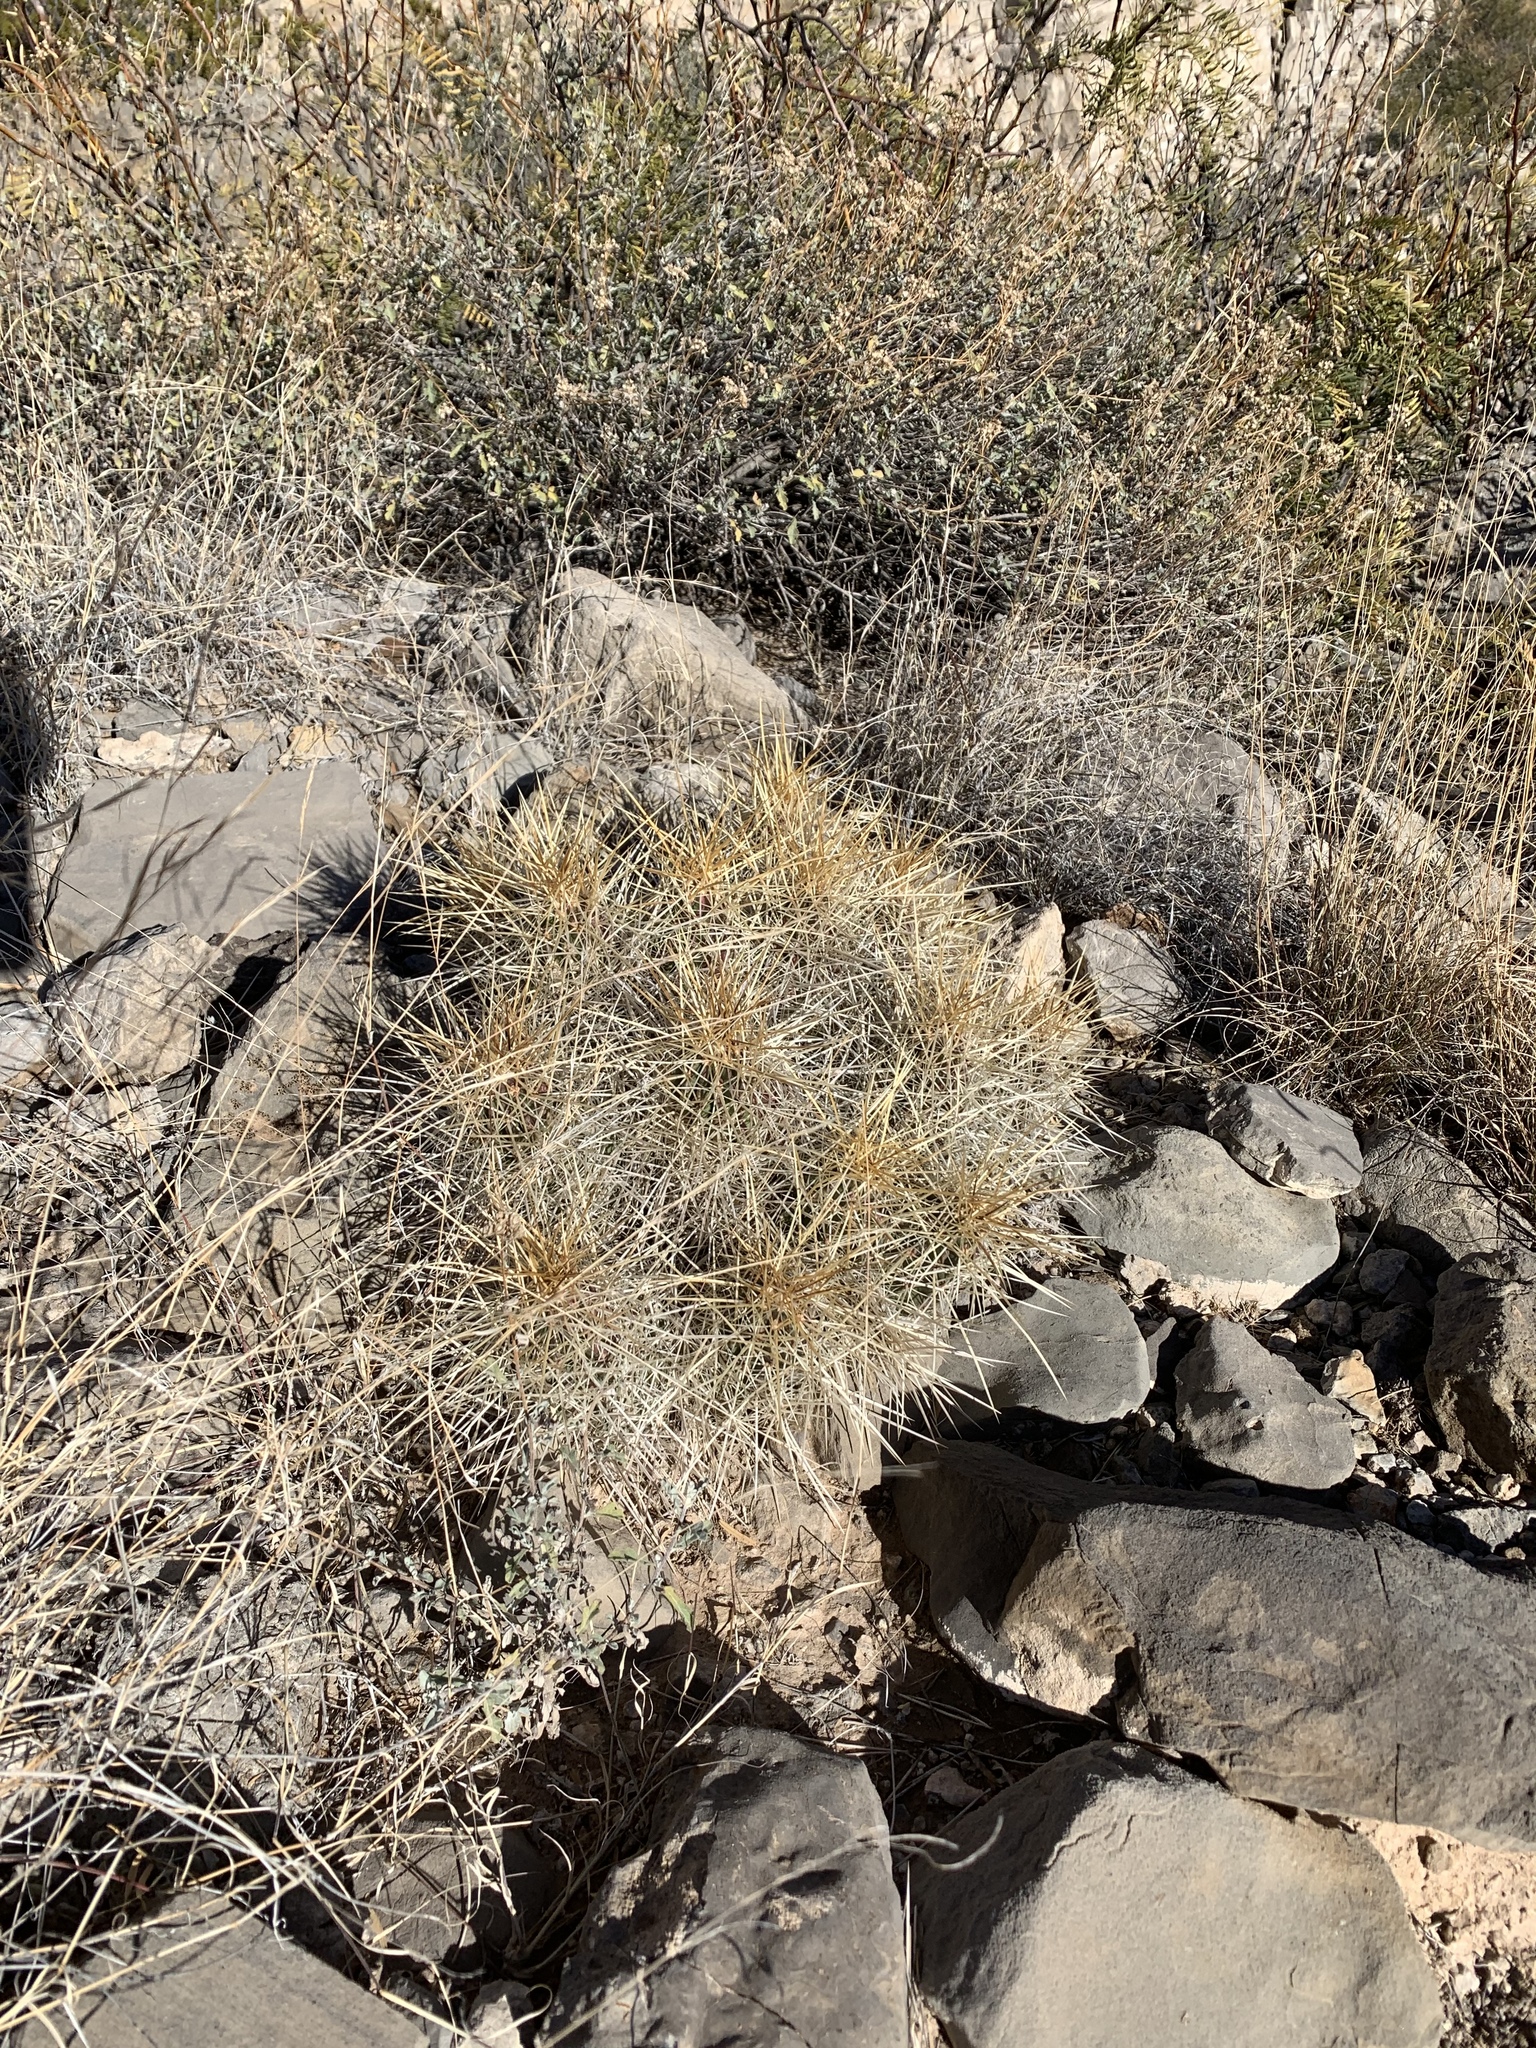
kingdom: Plantae
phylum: Tracheophyta
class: Magnoliopsida
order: Caryophyllales
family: Cactaceae
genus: Echinocereus
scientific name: Echinocereus stramineus
